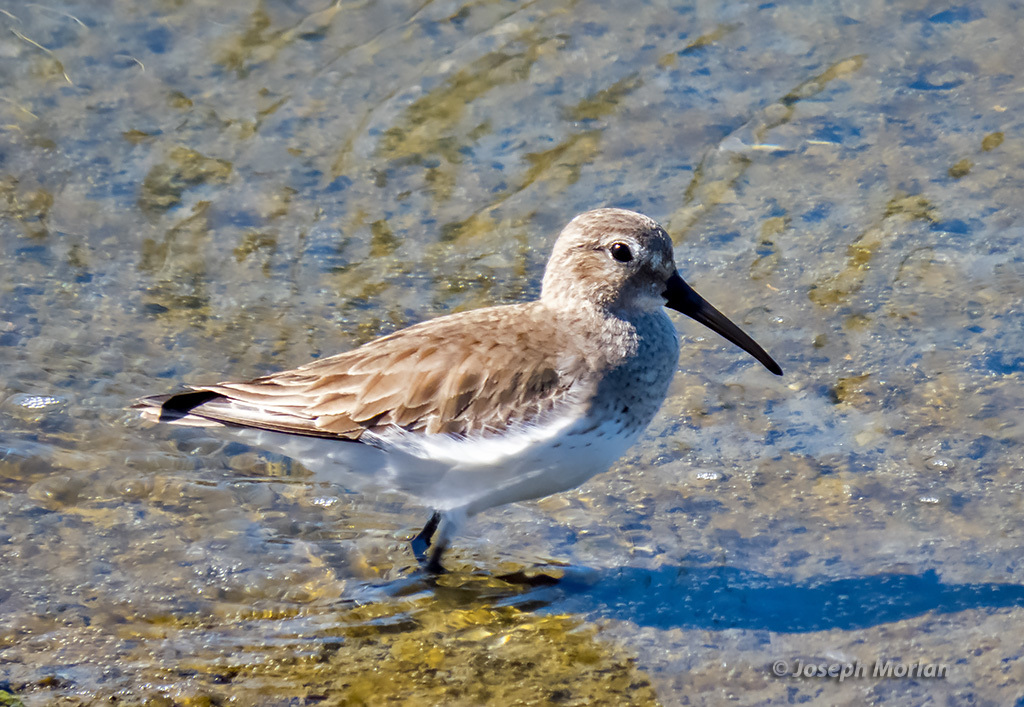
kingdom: Animalia
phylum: Chordata
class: Aves
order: Charadriiformes
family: Scolopacidae
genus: Calidris
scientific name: Calidris alpina
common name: Dunlin
